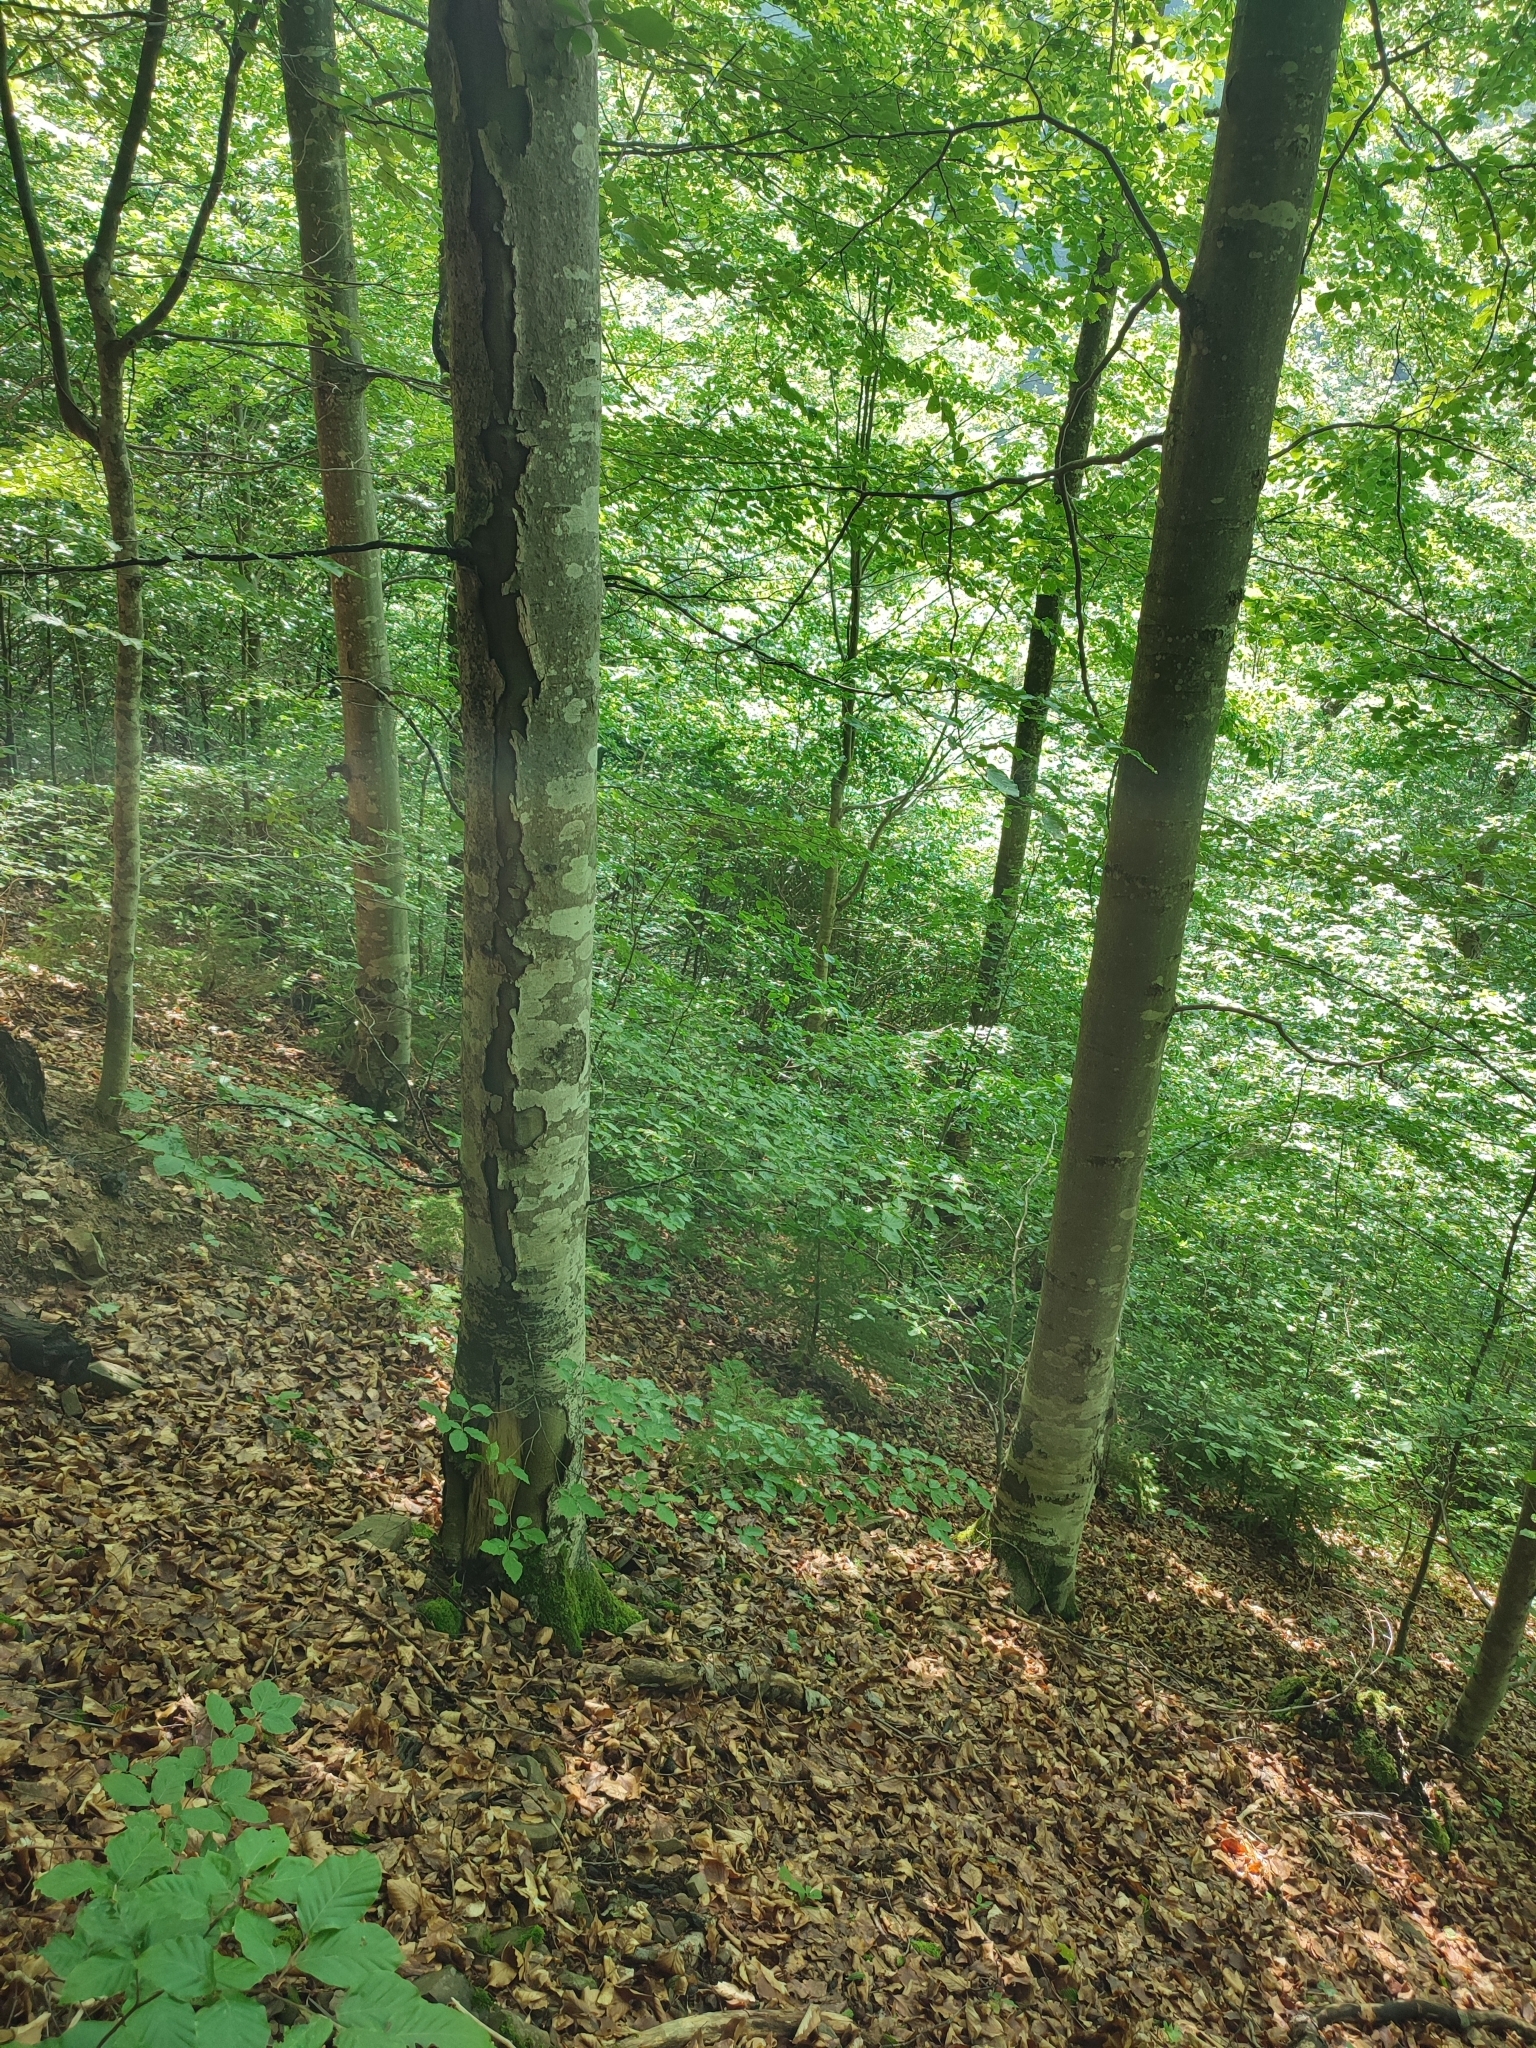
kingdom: Plantae
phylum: Tracheophyta
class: Magnoliopsida
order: Fagales
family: Fagaceae
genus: Fagus
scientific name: Fagus sylvatica
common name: Beech
